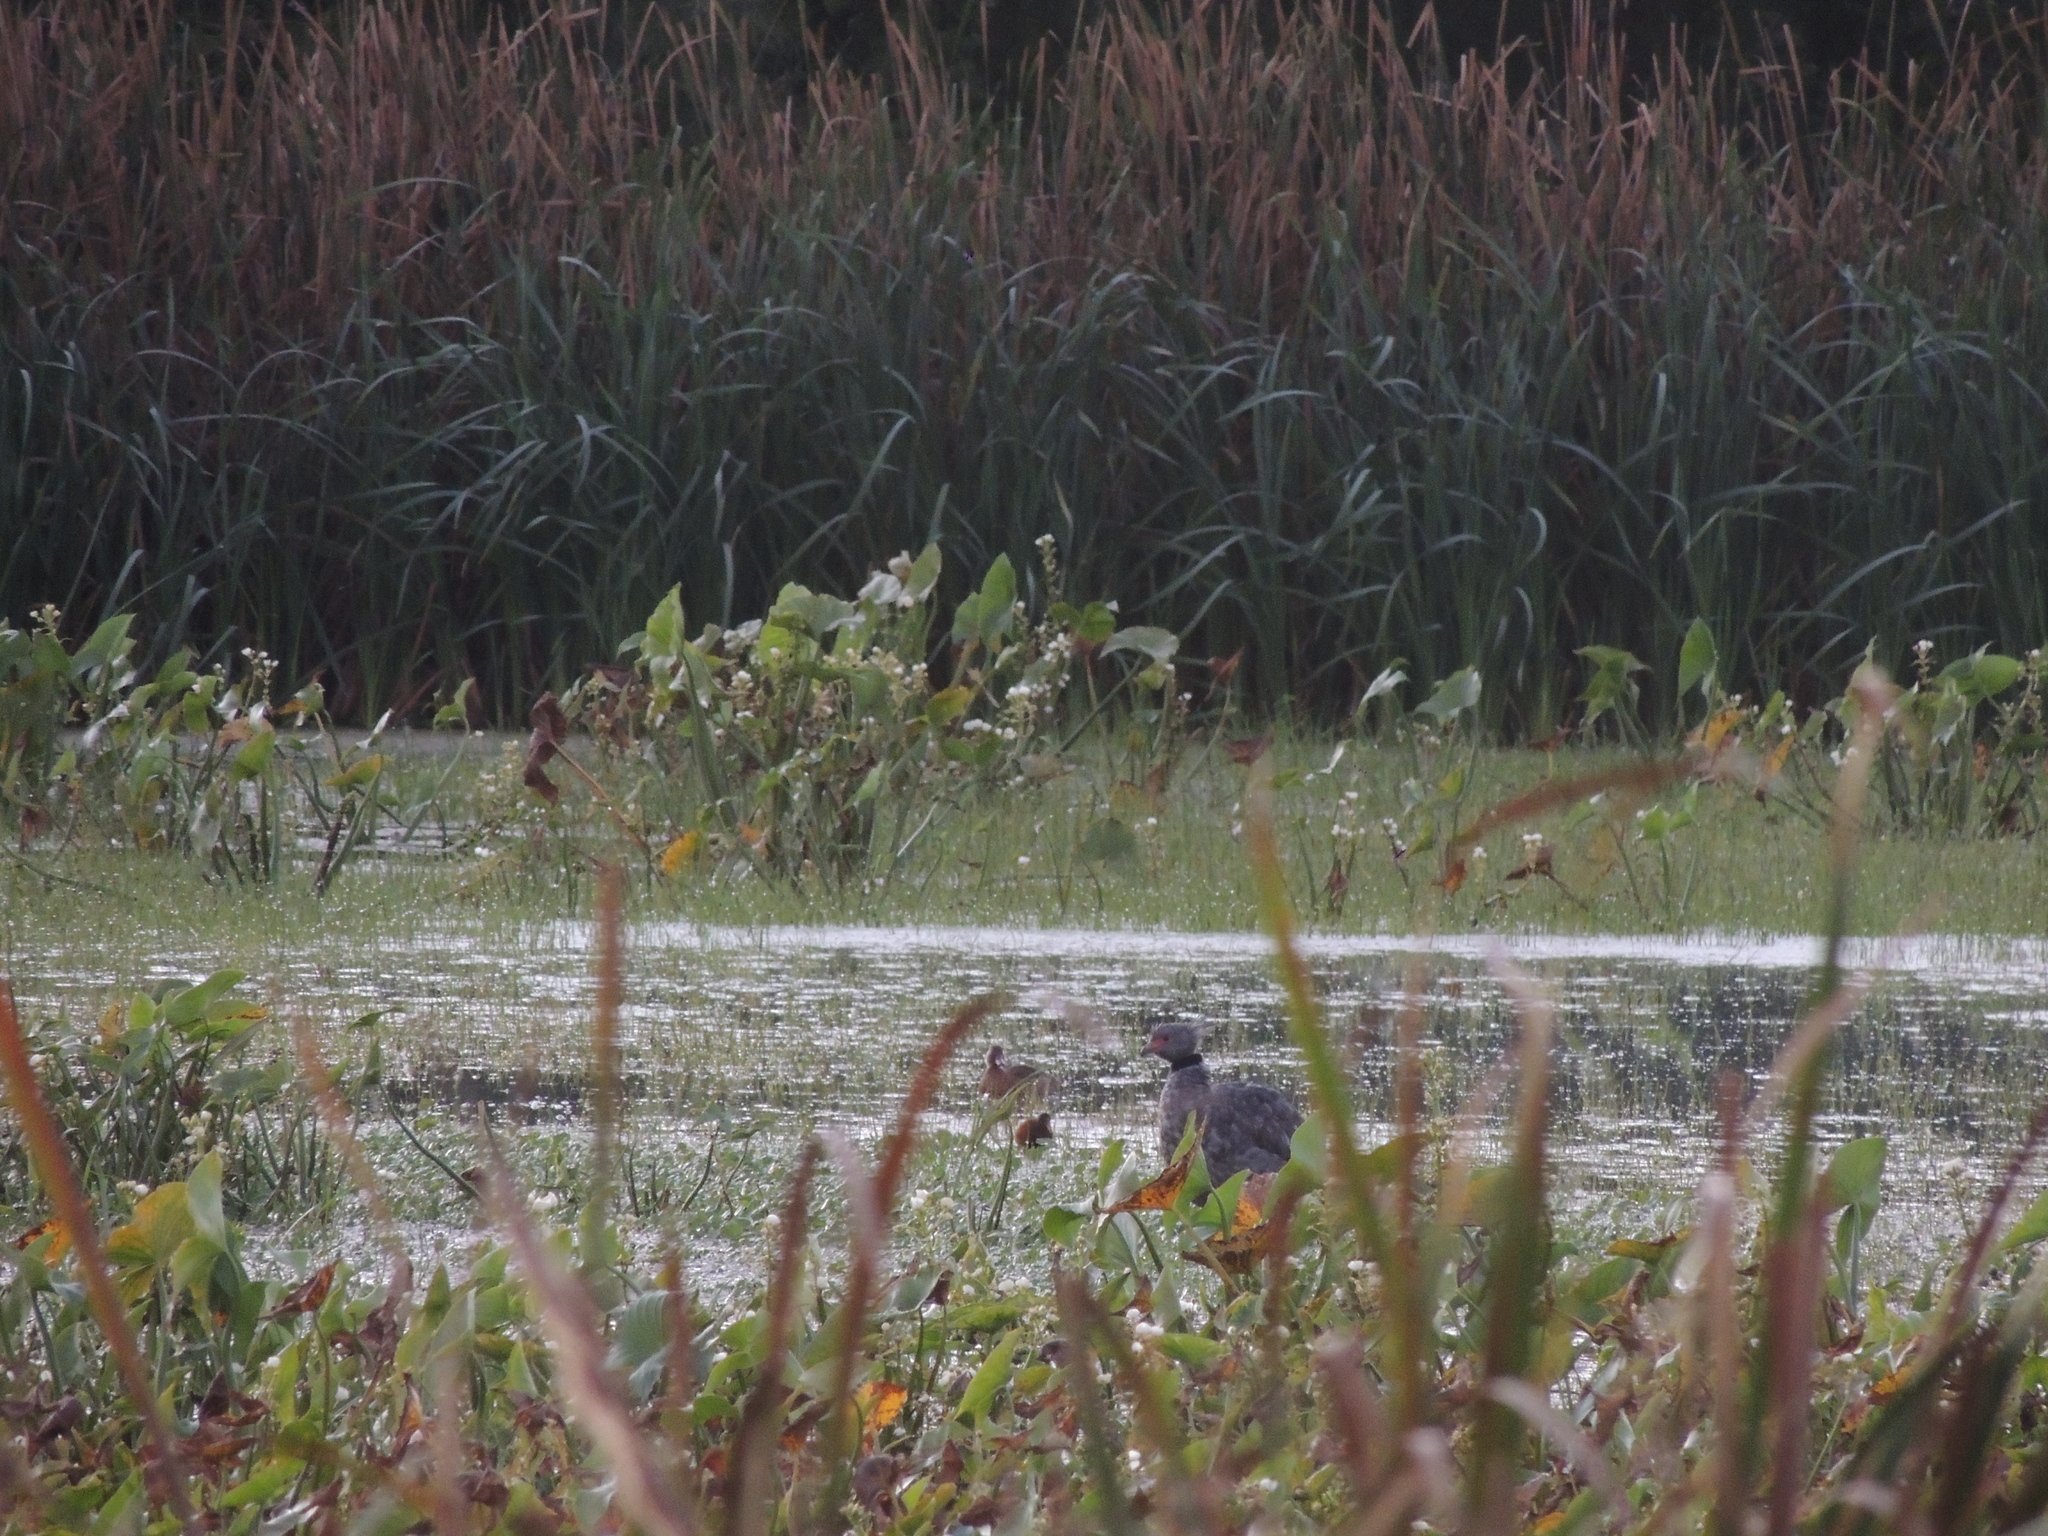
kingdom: Animalia
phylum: Chordata
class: Aves
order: Anseriformes
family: Anhimidae
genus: Chauna
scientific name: Chauna torquata
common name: Southern screamer
